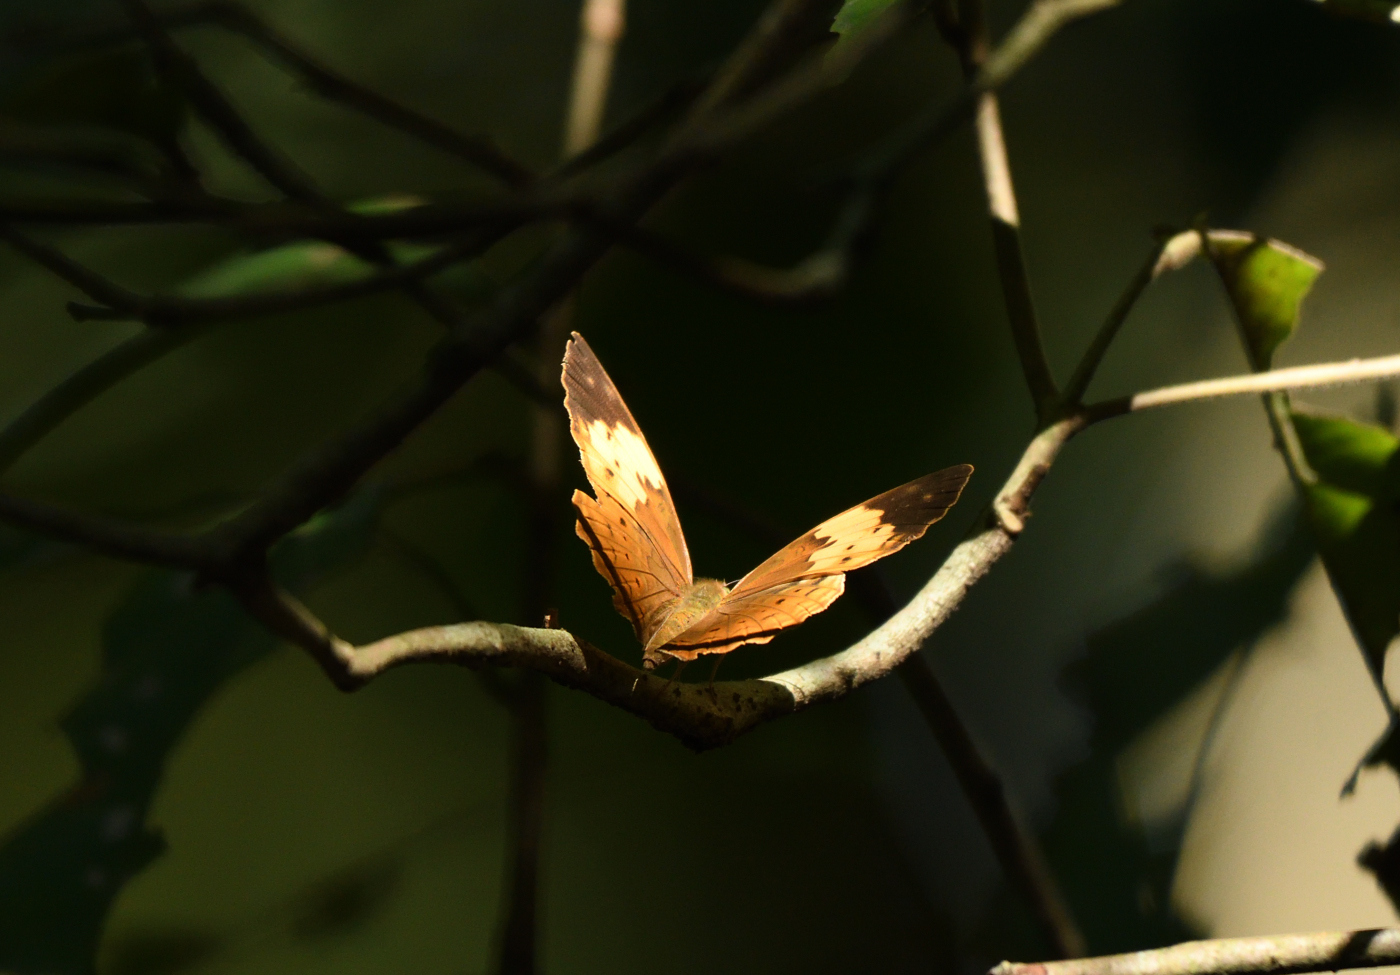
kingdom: Animalia
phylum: Arthropoda
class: Insecta
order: Lepidoptera
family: Nymphalidae
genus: Cupha
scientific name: Cupha erymanthis
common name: Rustic
